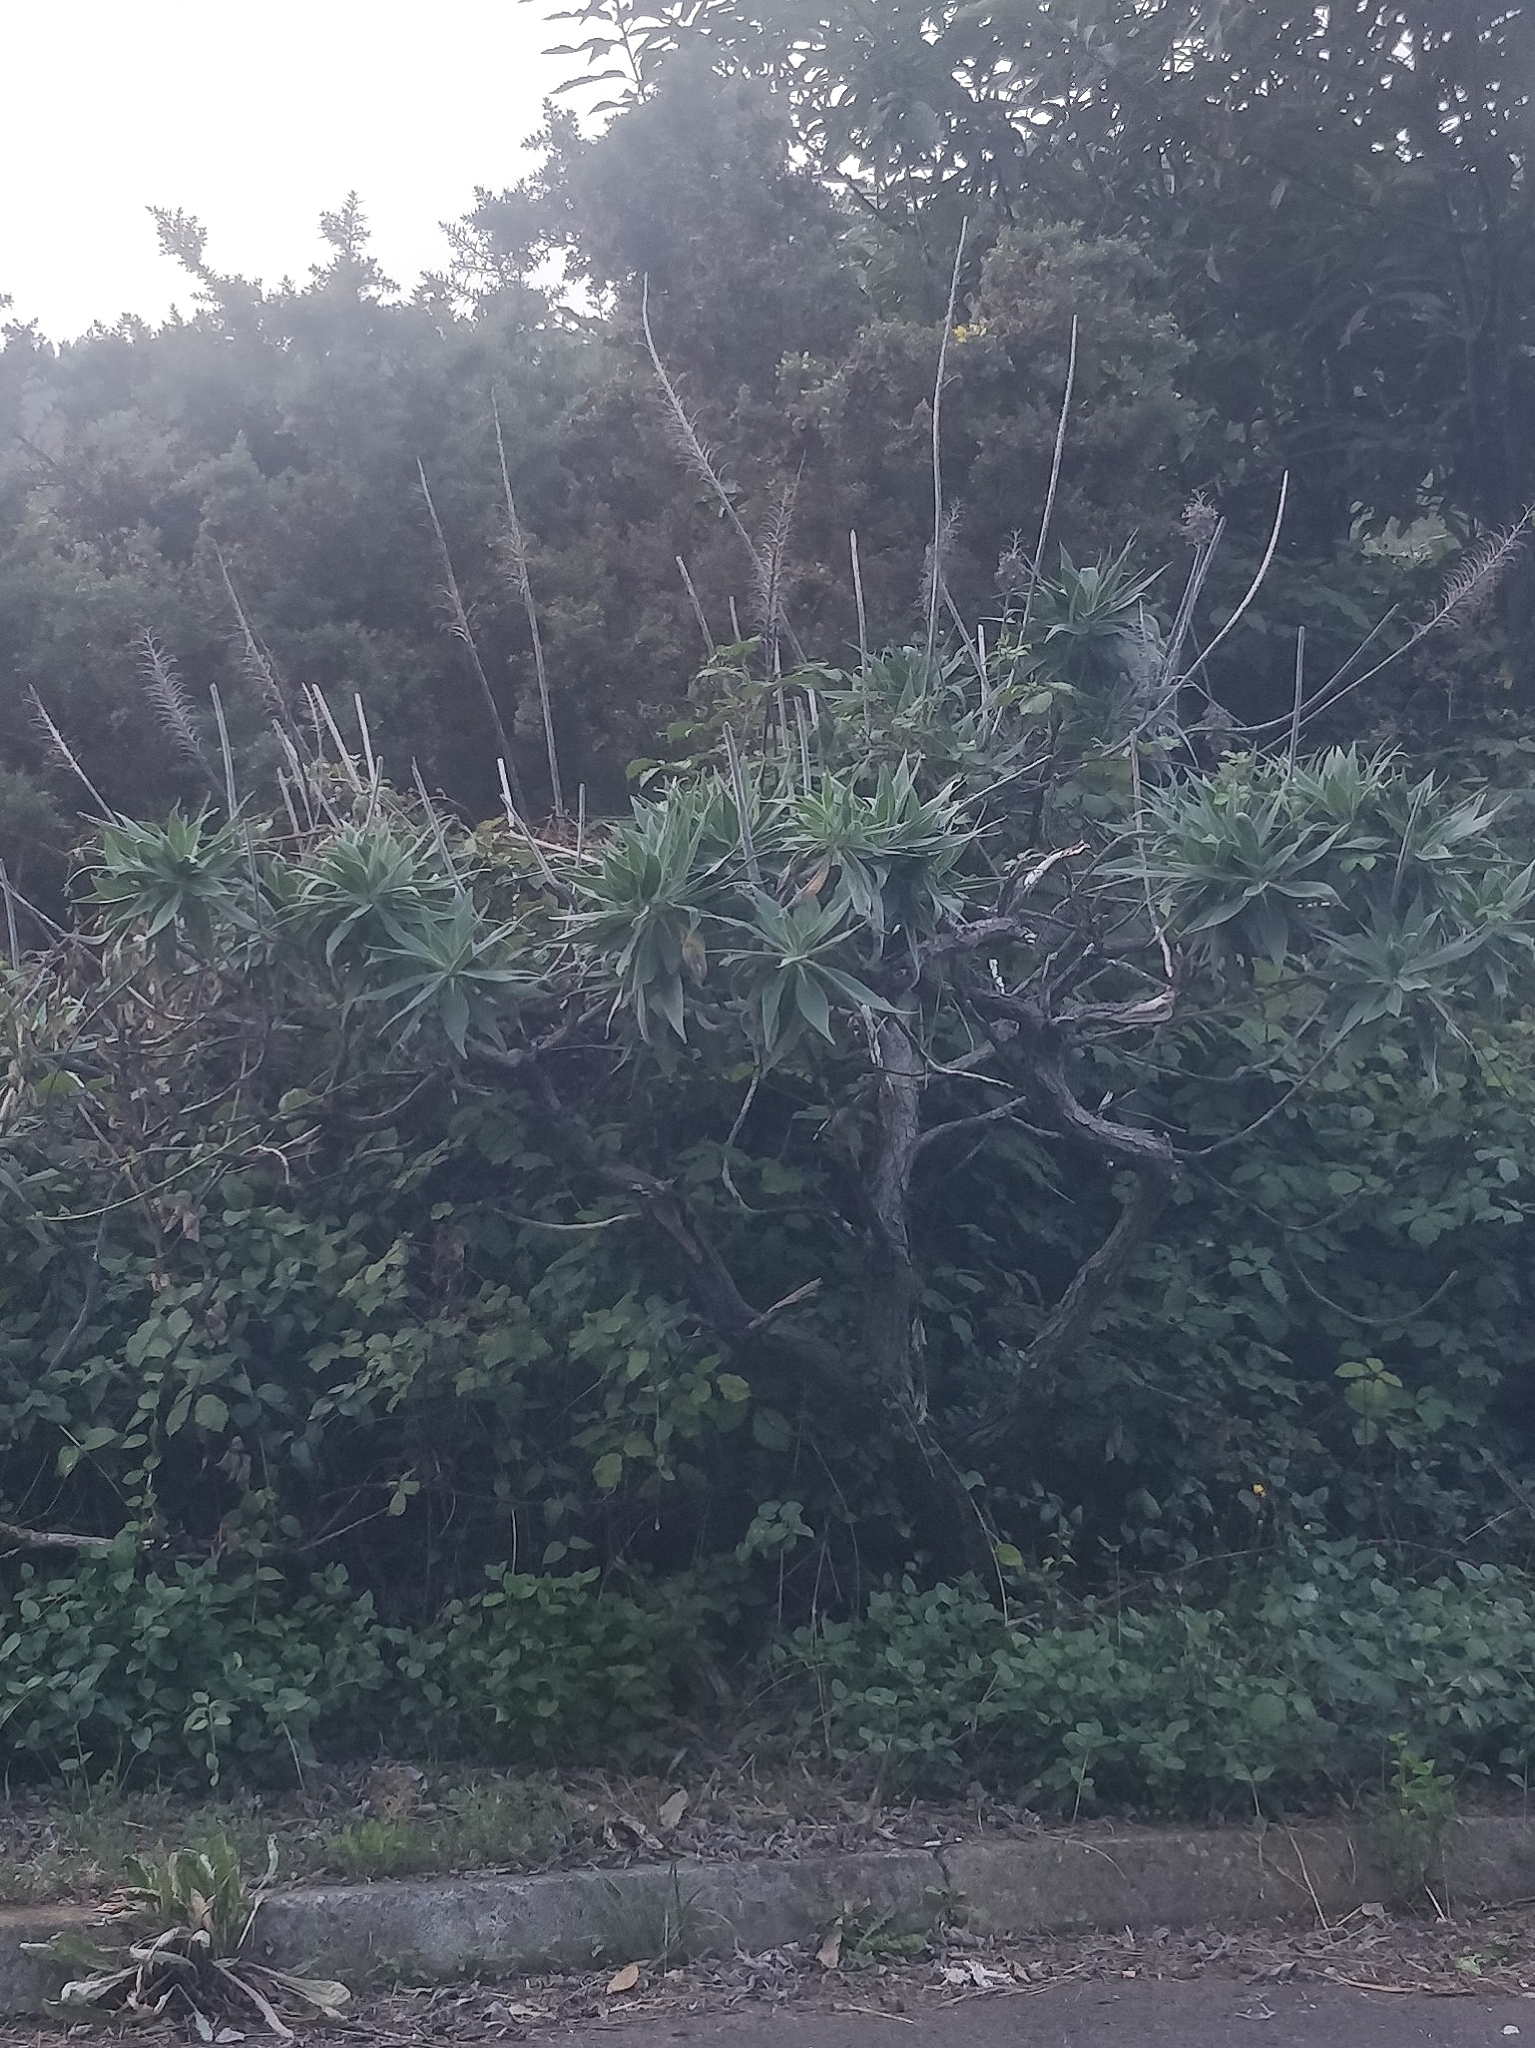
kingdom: Plantae
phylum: Tracheophyta
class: Magnoliopsida
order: Boraginales
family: Boraginaceae
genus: Echium
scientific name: Echium candicans
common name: Pride of madeira
